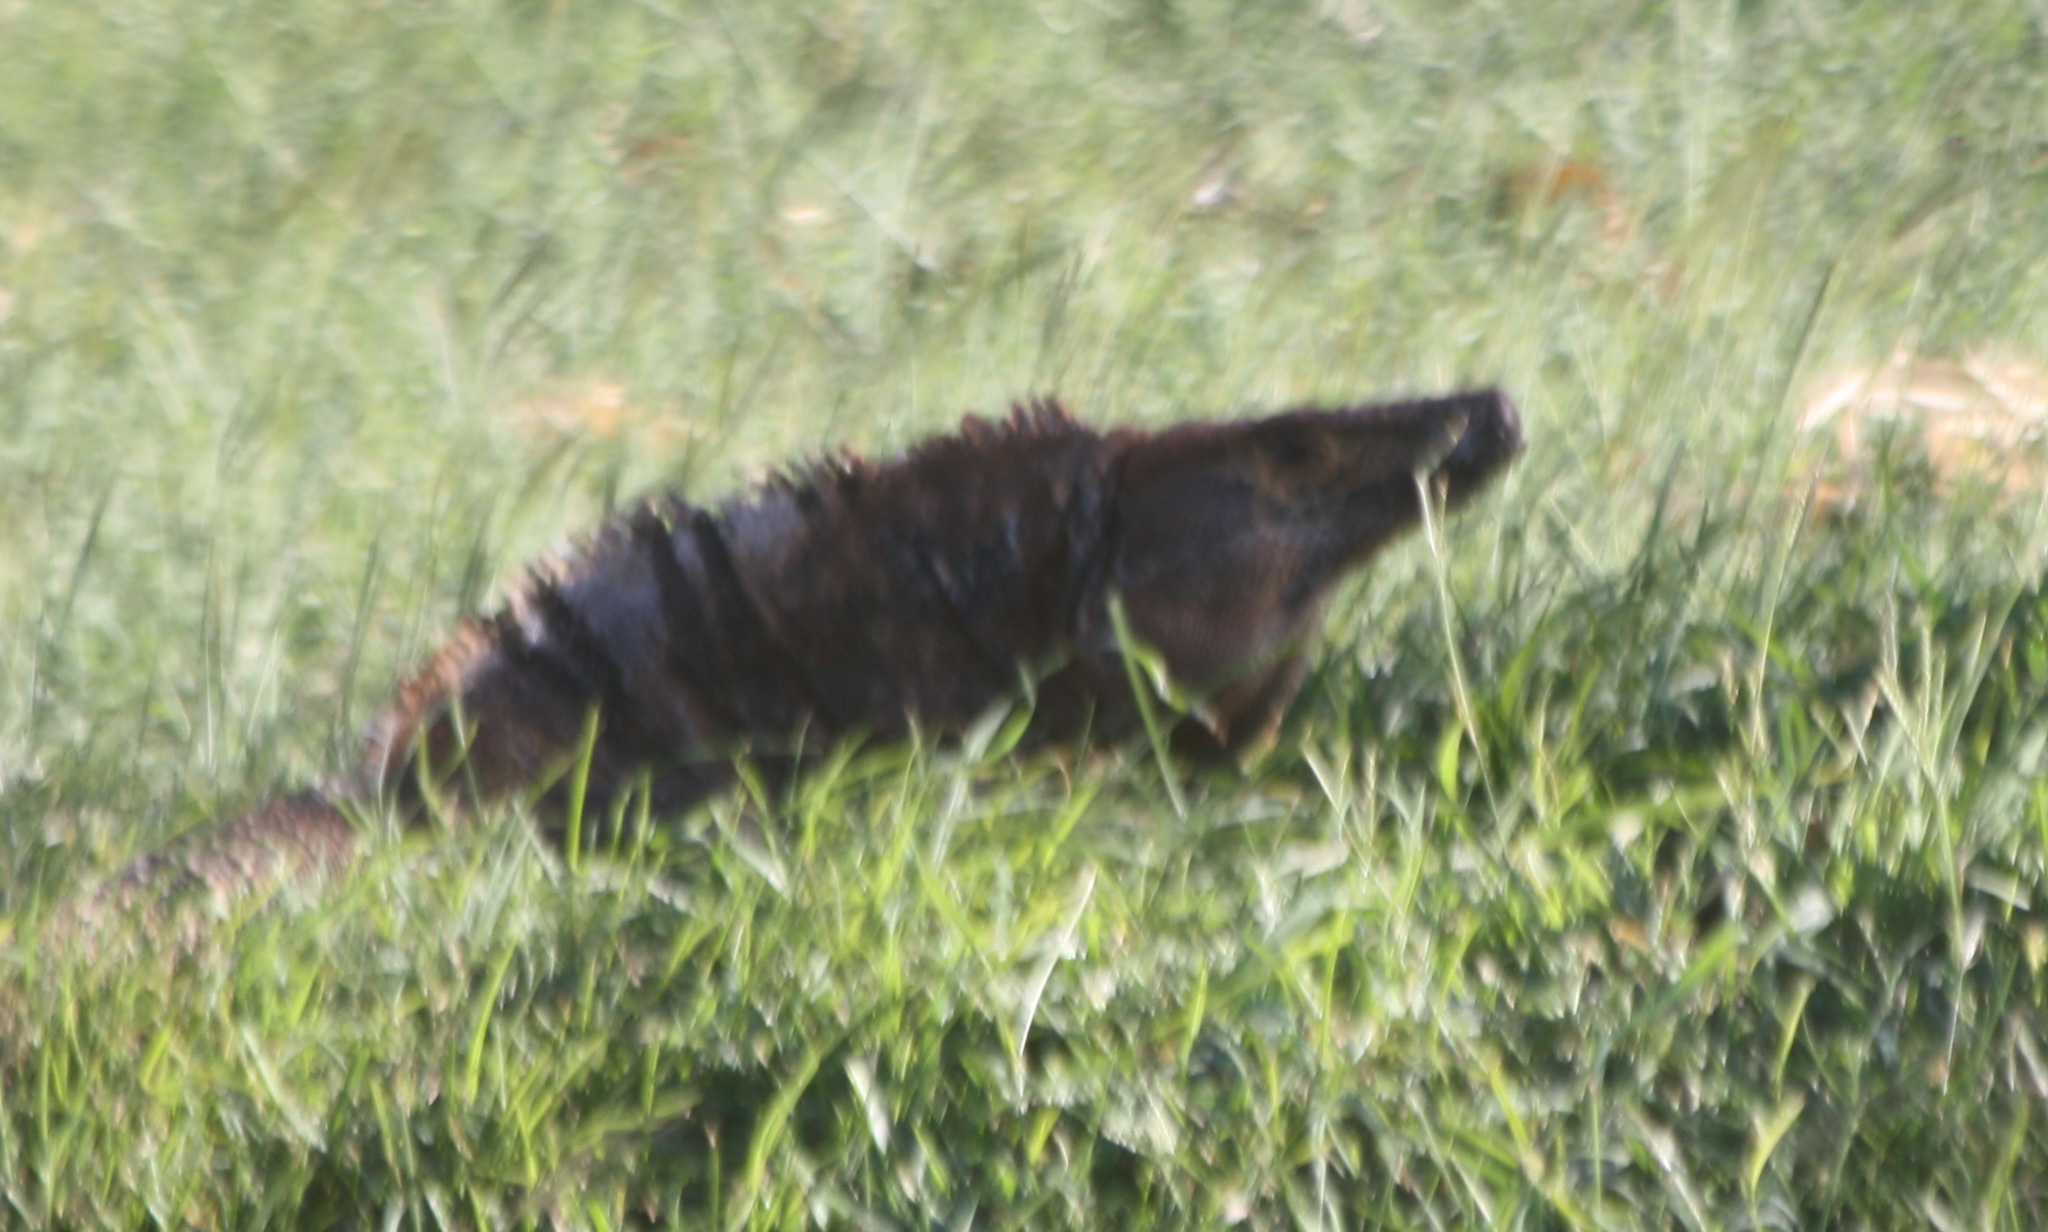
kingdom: Animalia
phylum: Chordata
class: Squamata
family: Iguanidae
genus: Ctenosaura
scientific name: Ctenosaura similis
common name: Black spiny-tailed iguana
